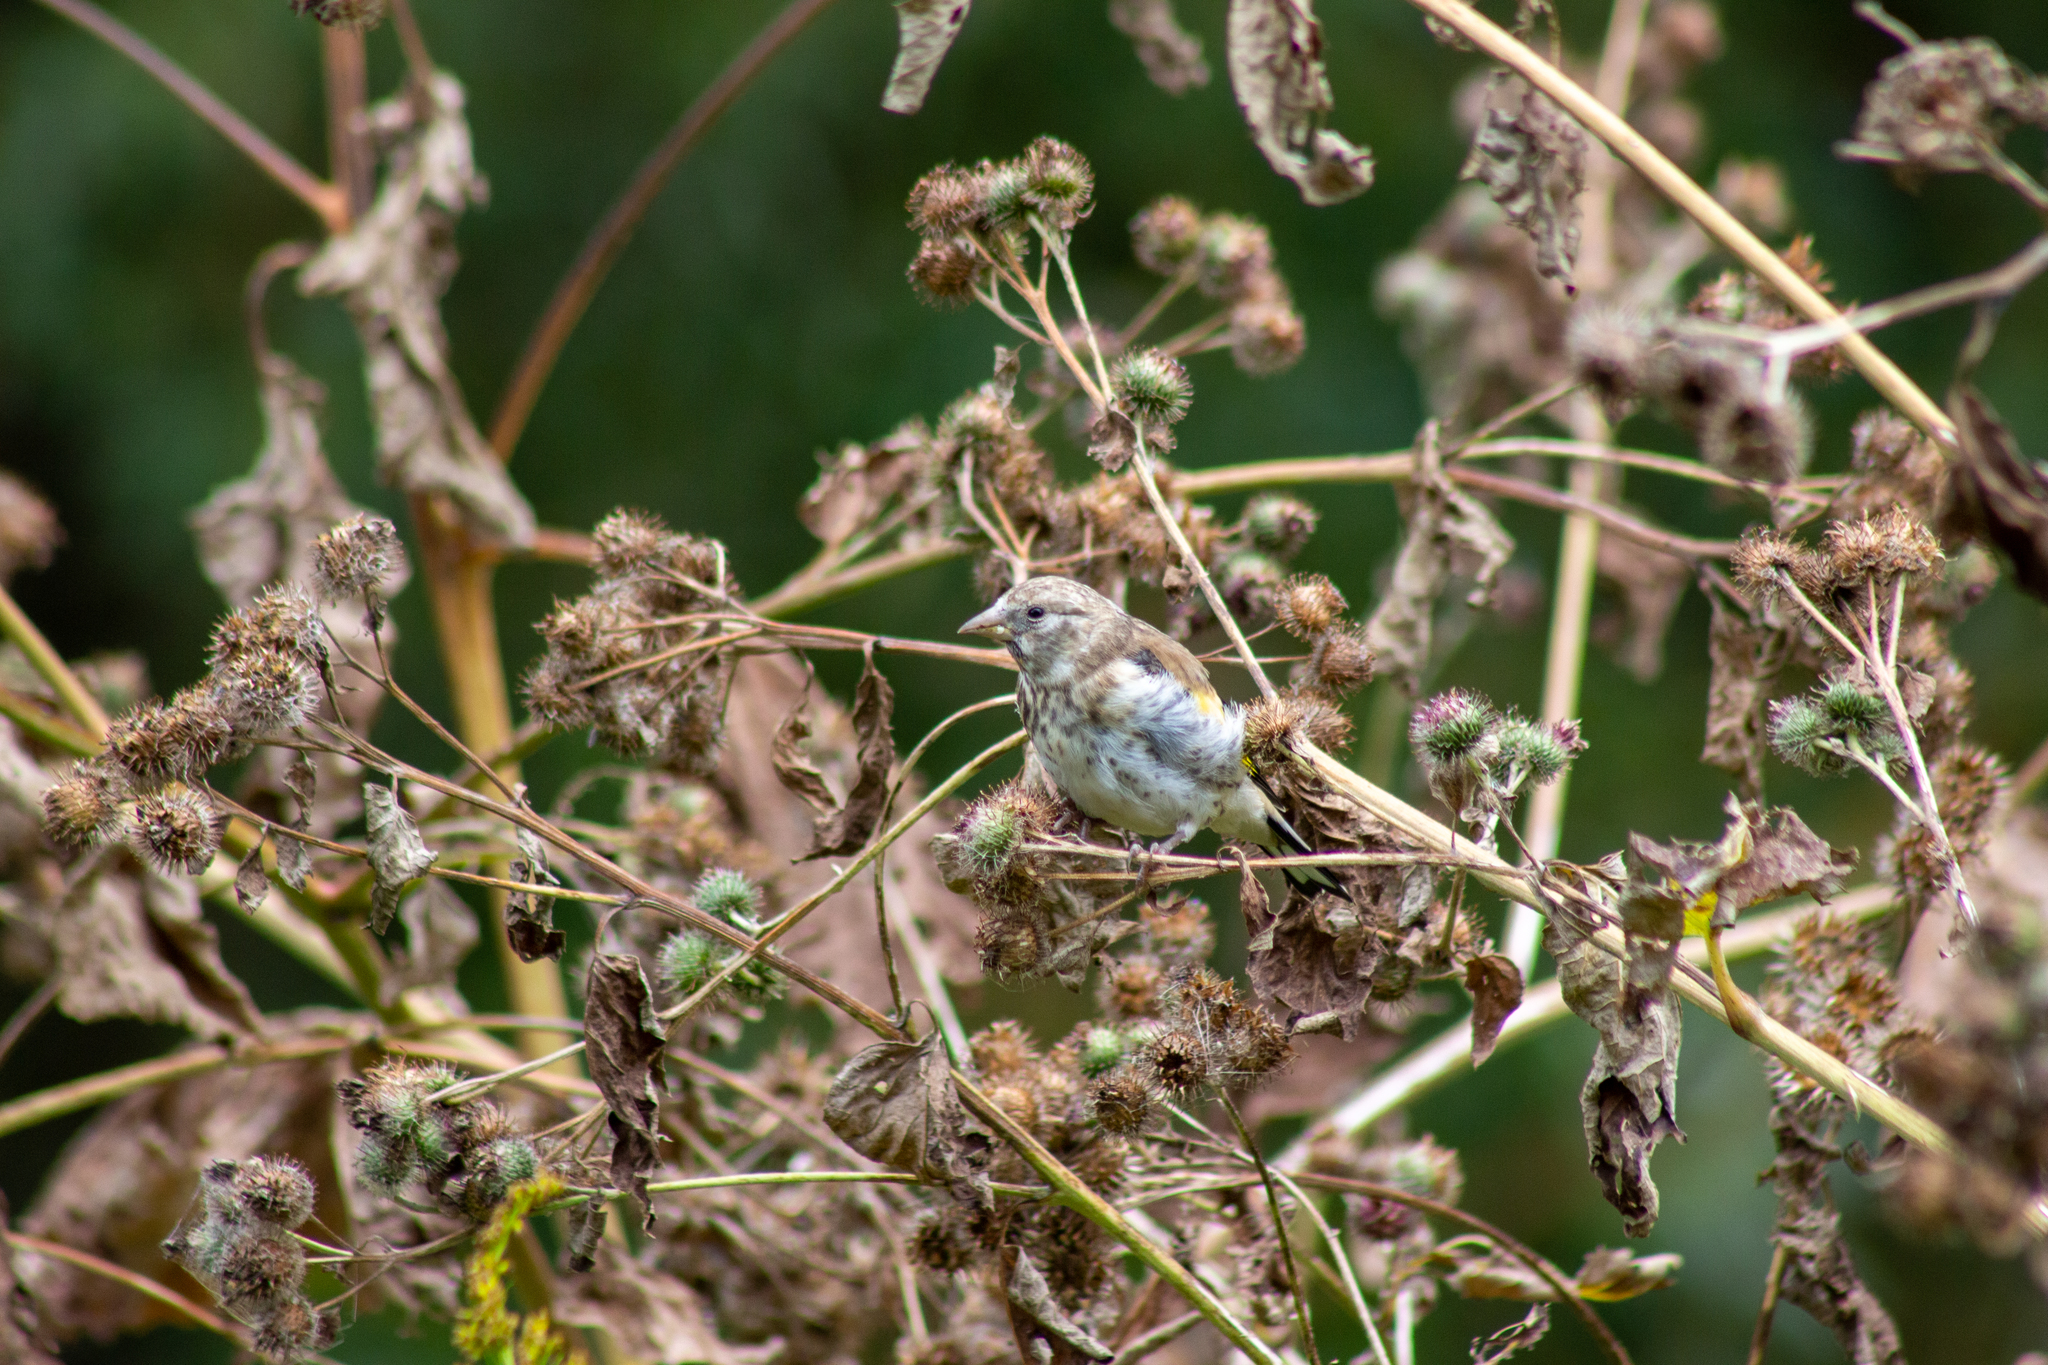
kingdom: Animalia
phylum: Chordata
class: Aves
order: Passeriformes
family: Fringillidae
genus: Carduelis
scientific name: Carduelis carduelis
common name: European goldfinch
